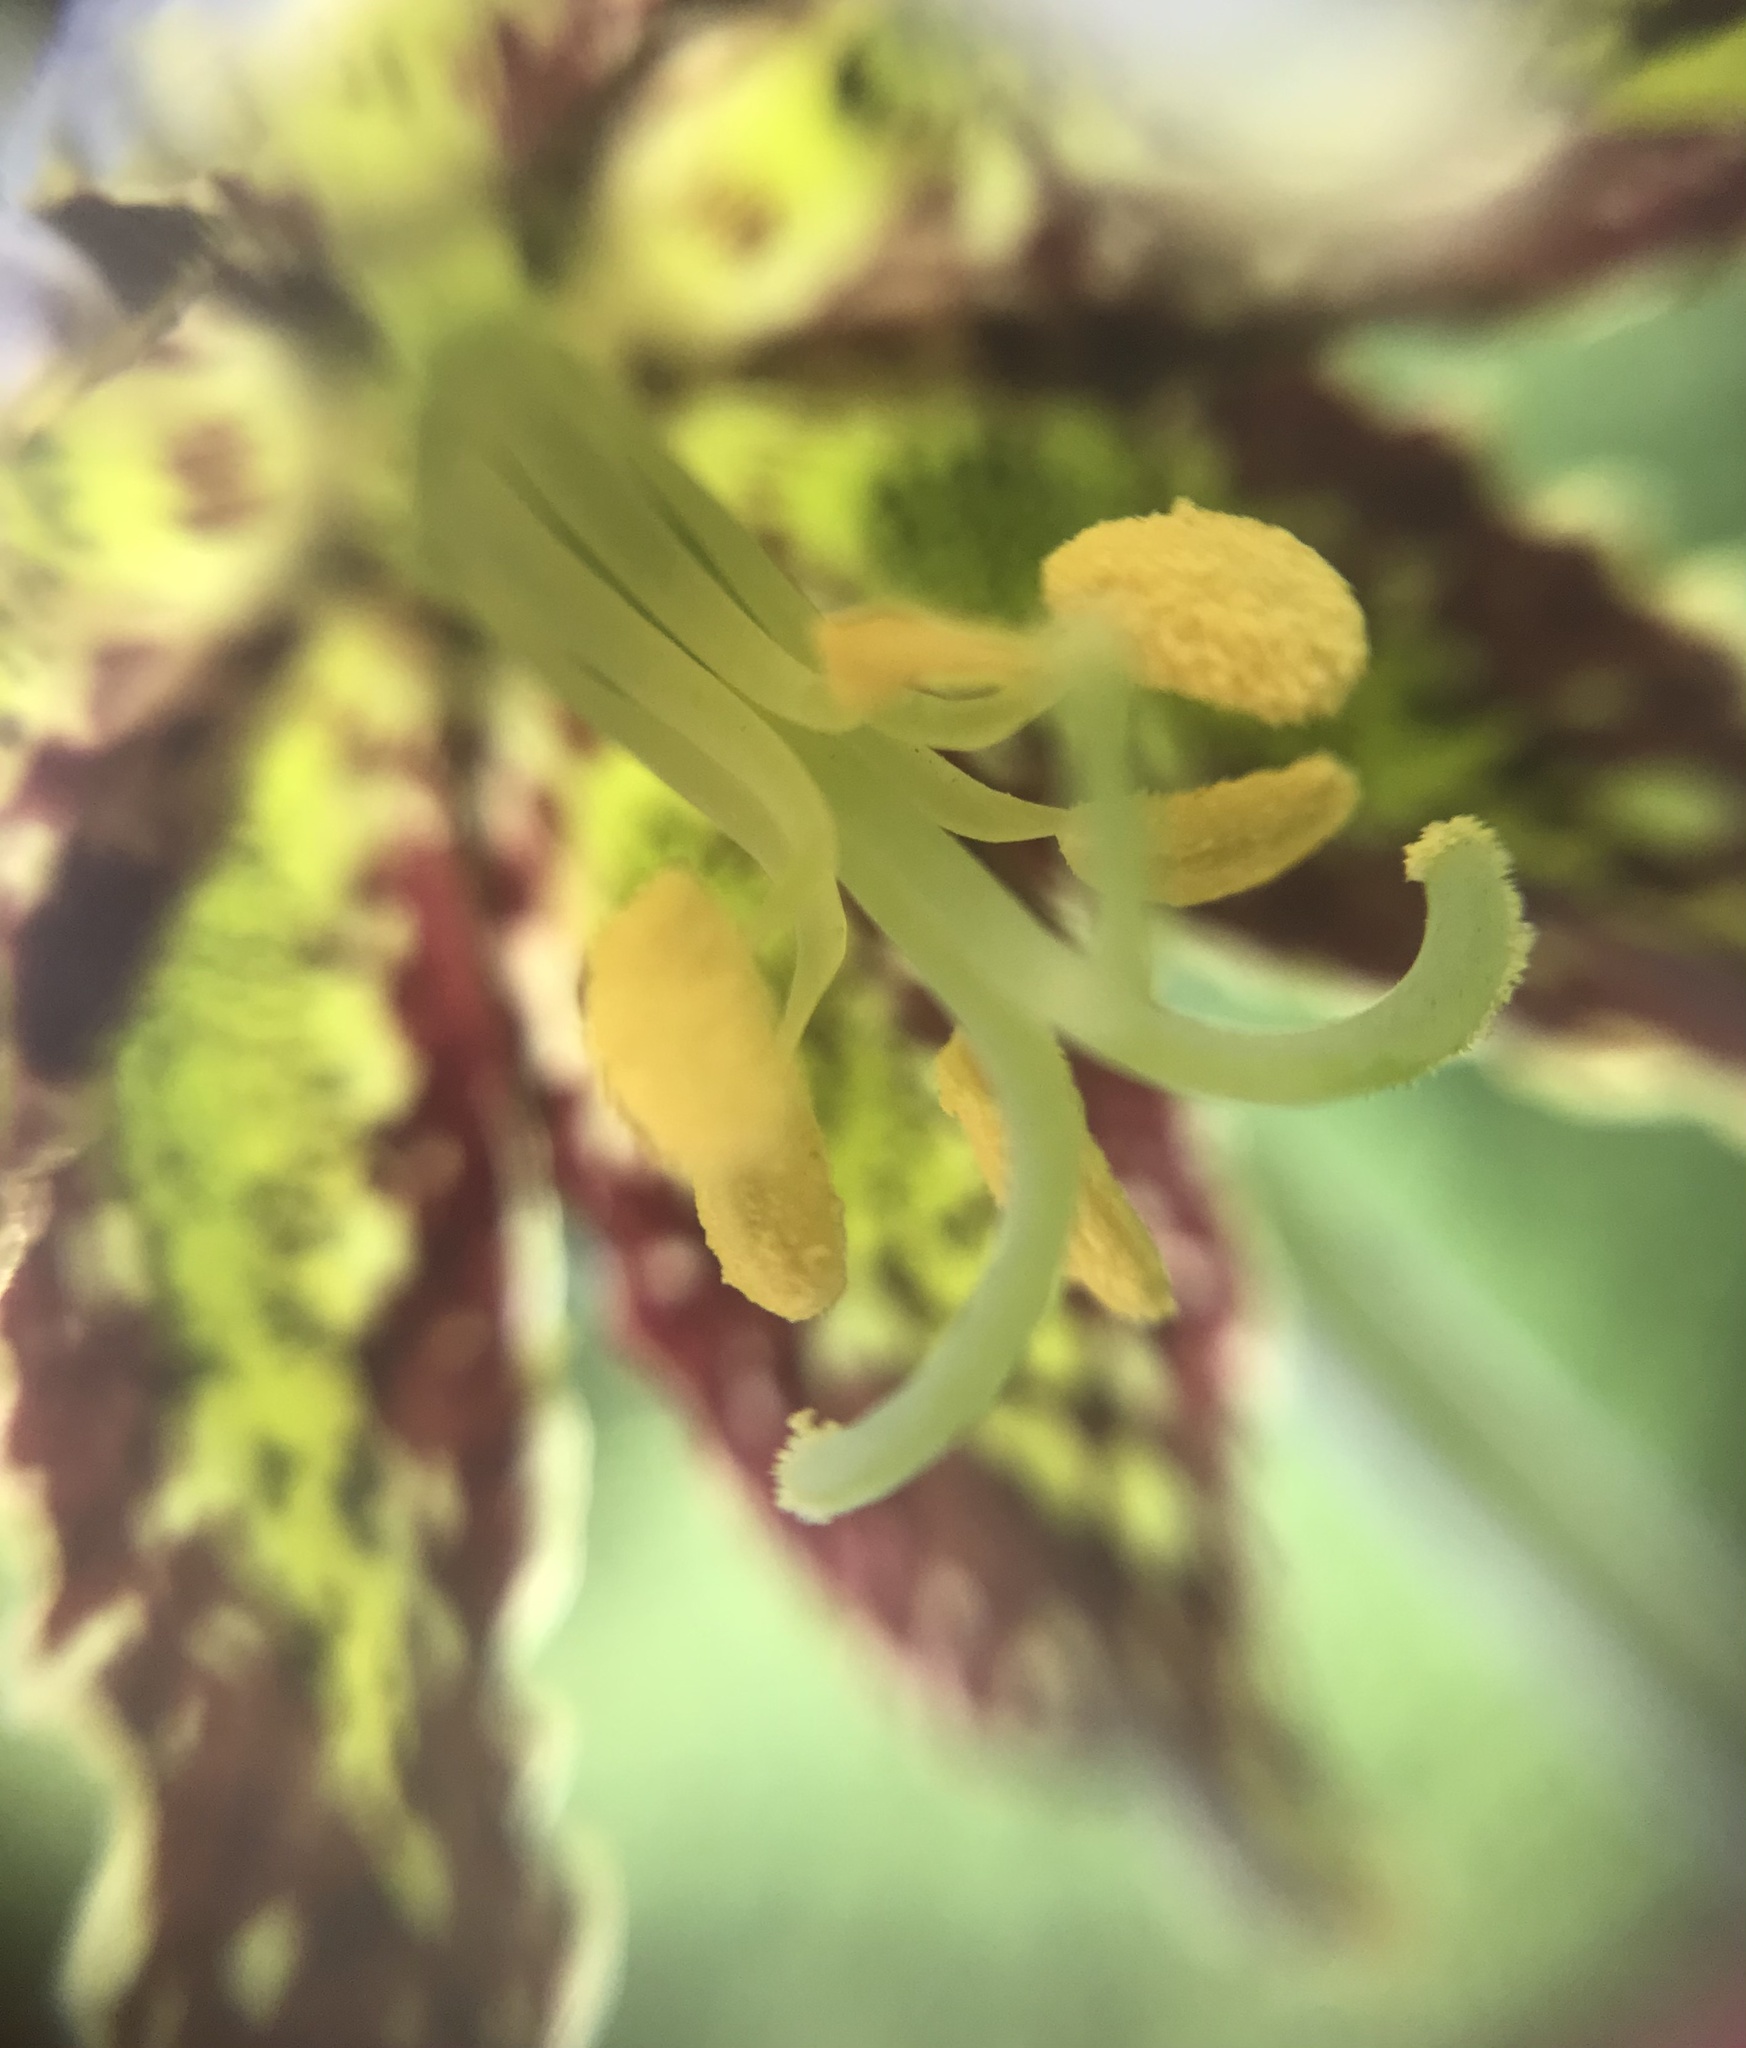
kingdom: Plantae
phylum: Tracheophyta
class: Liliopsida
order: Liliales
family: Liliaceae
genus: Fritillaria
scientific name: Fritillaria affinis
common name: Ojai fritillary
